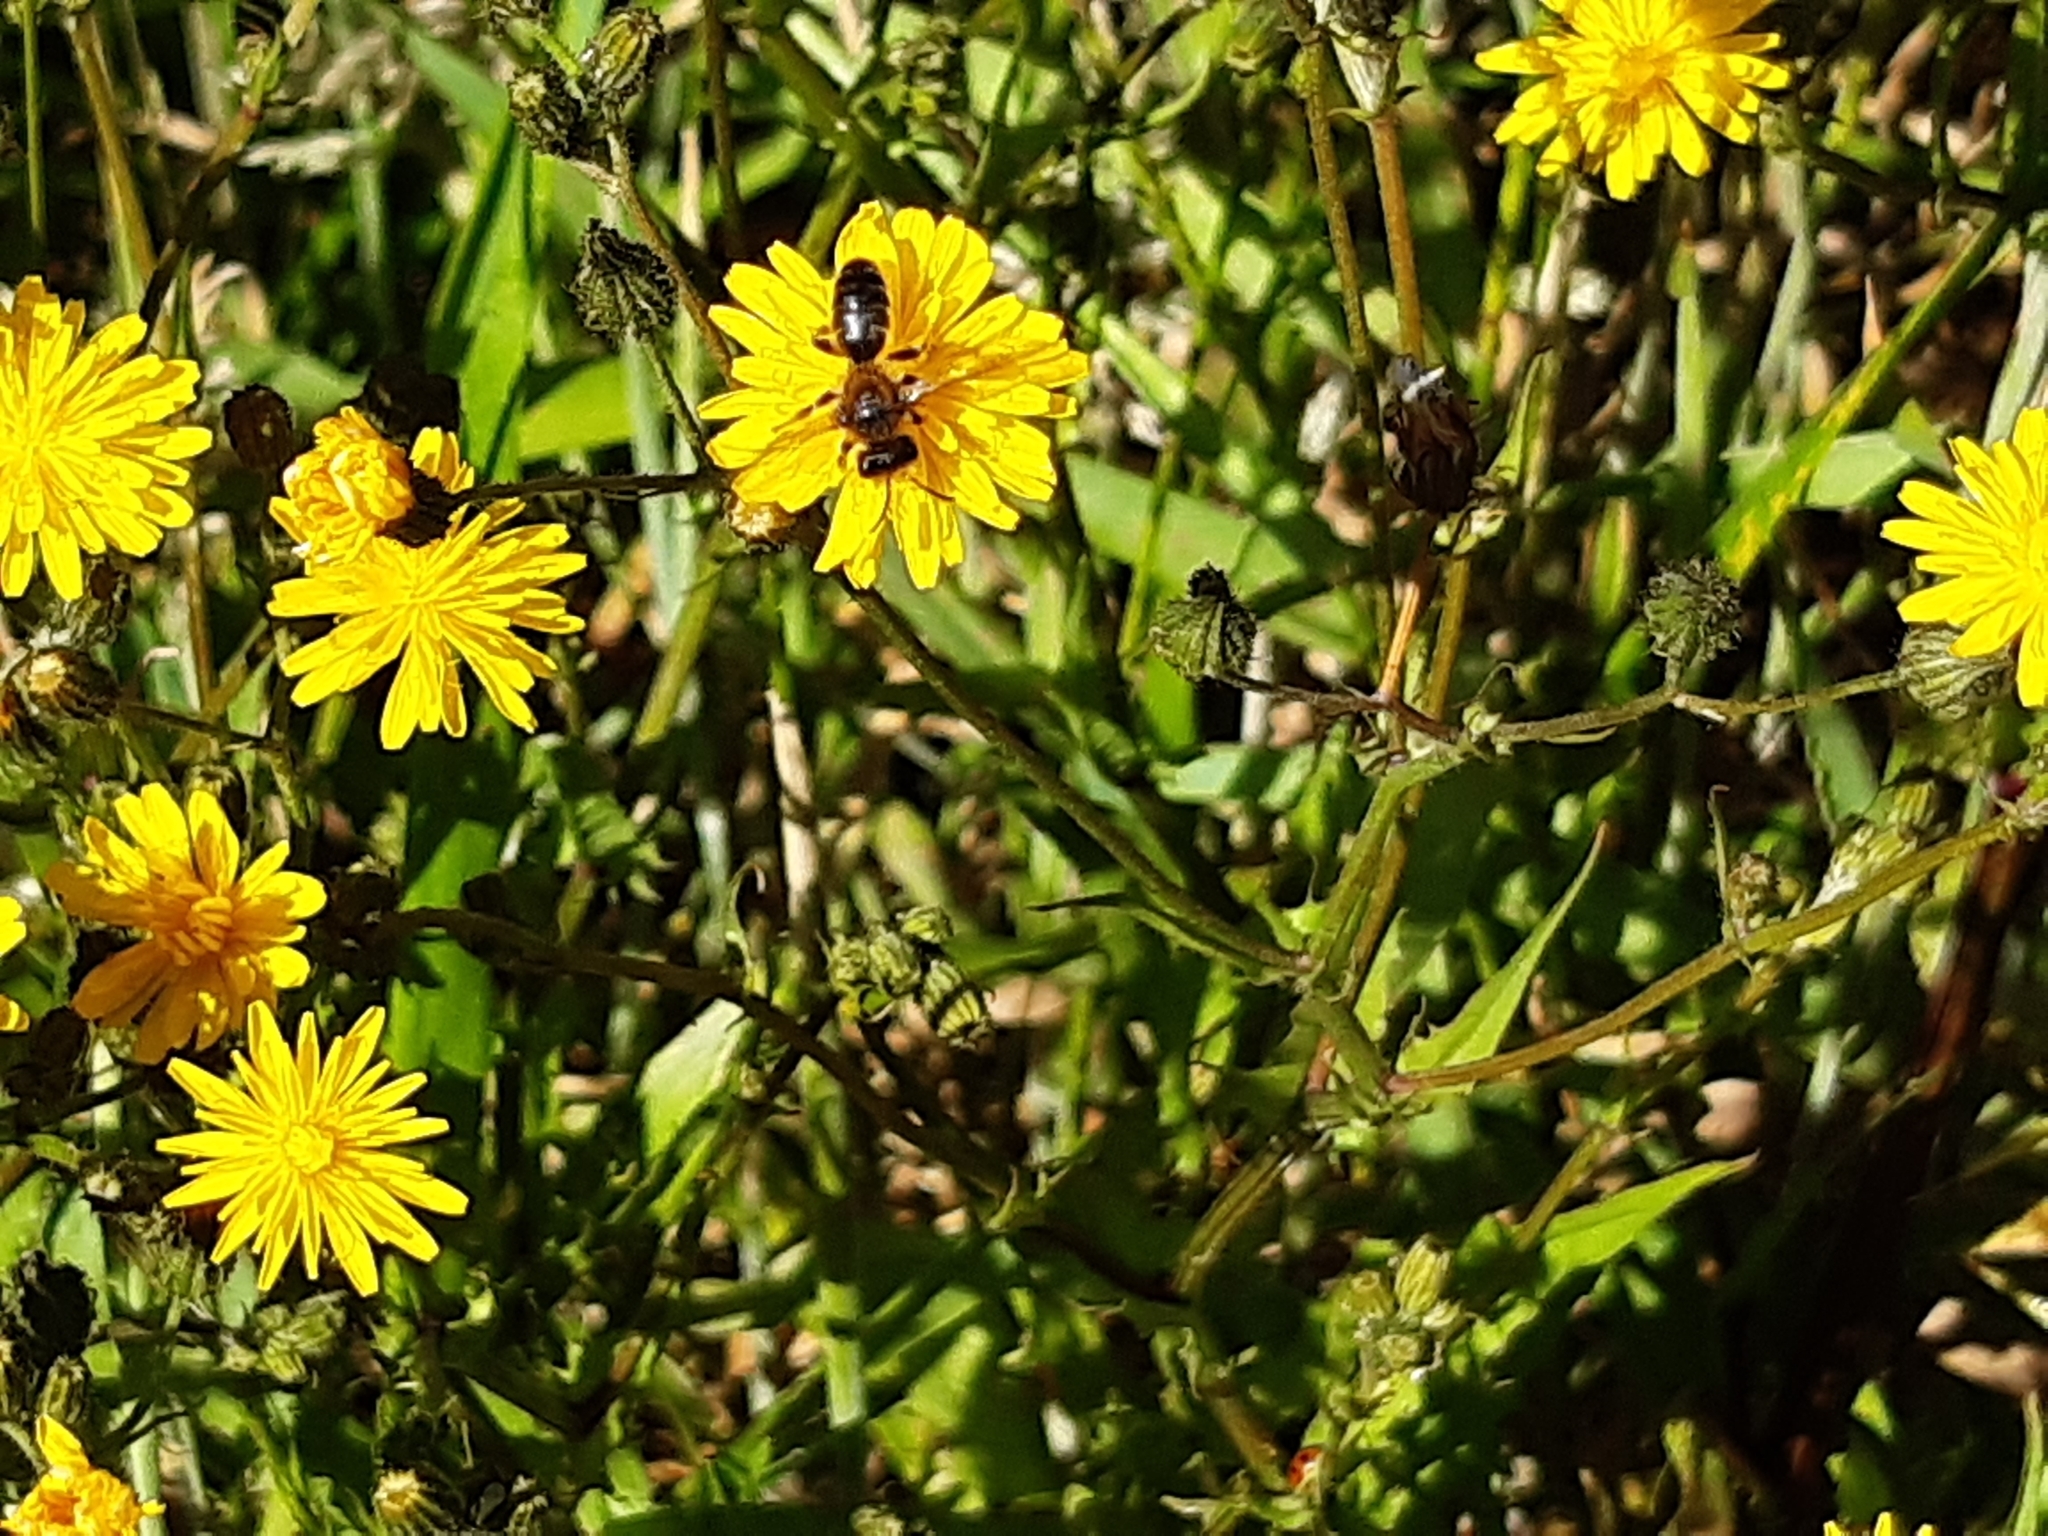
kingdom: Animalia
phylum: Arthropoda
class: Insecta
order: Hymenoptera
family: Colletidae
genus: Leioproctus
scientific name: Leioproctus fulvescens
